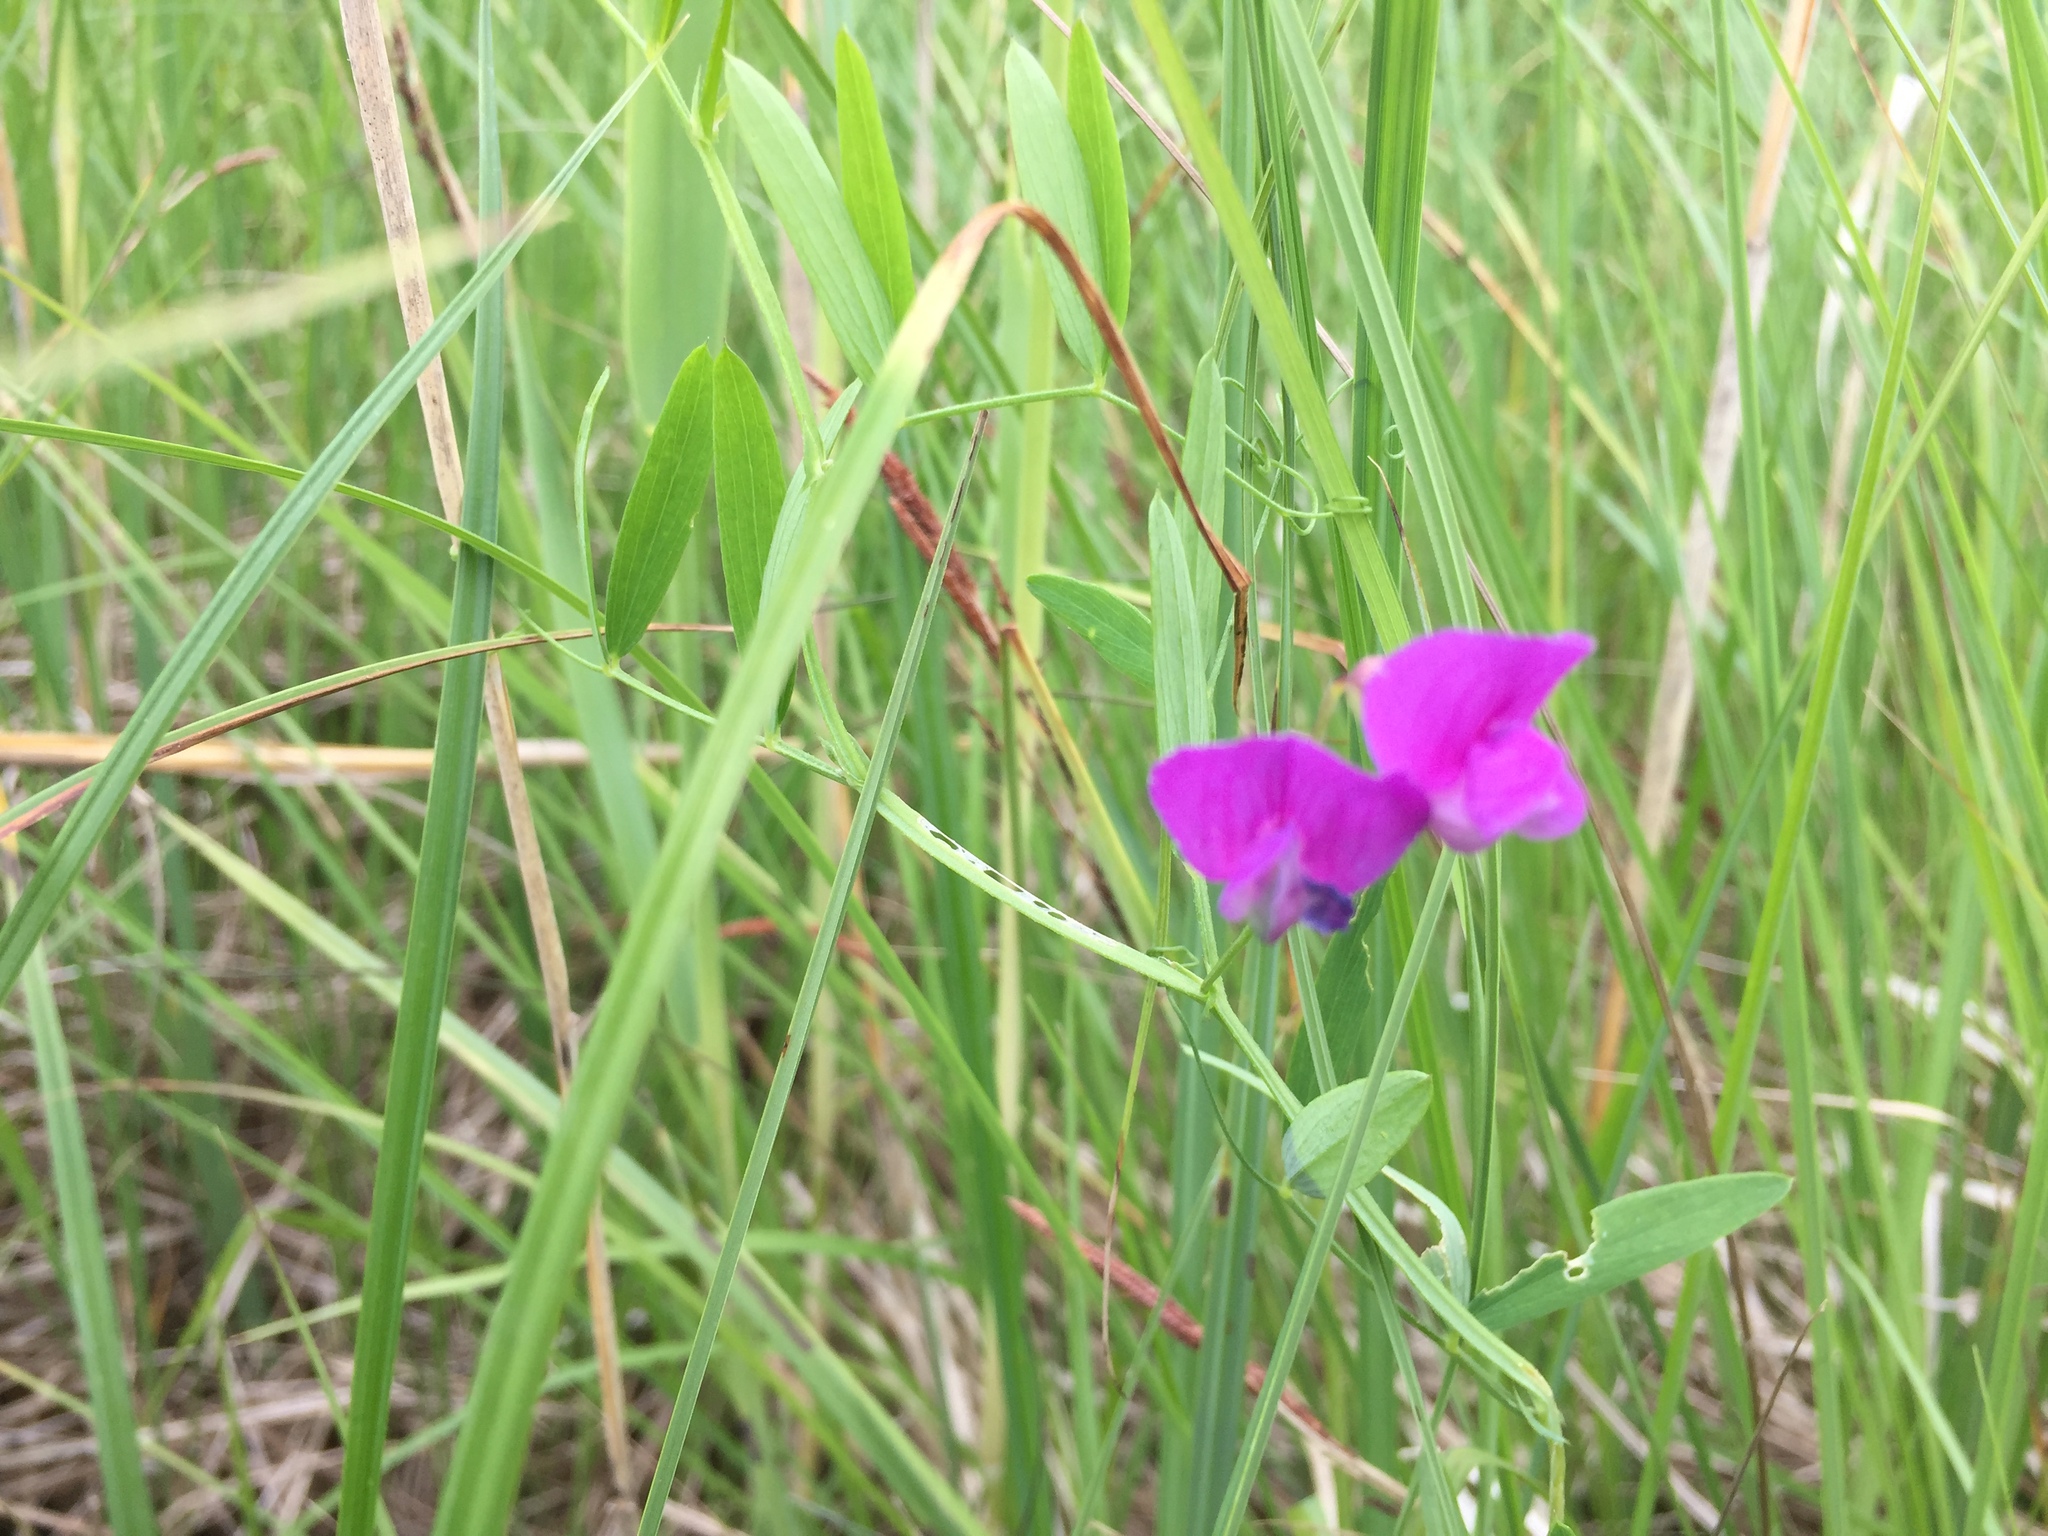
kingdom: Plantae
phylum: Tracheophyta
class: Magnoliopsida
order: Fabales
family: Fabaceae
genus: Lathyrus
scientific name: Lathyrus palustris
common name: Marsh pea
